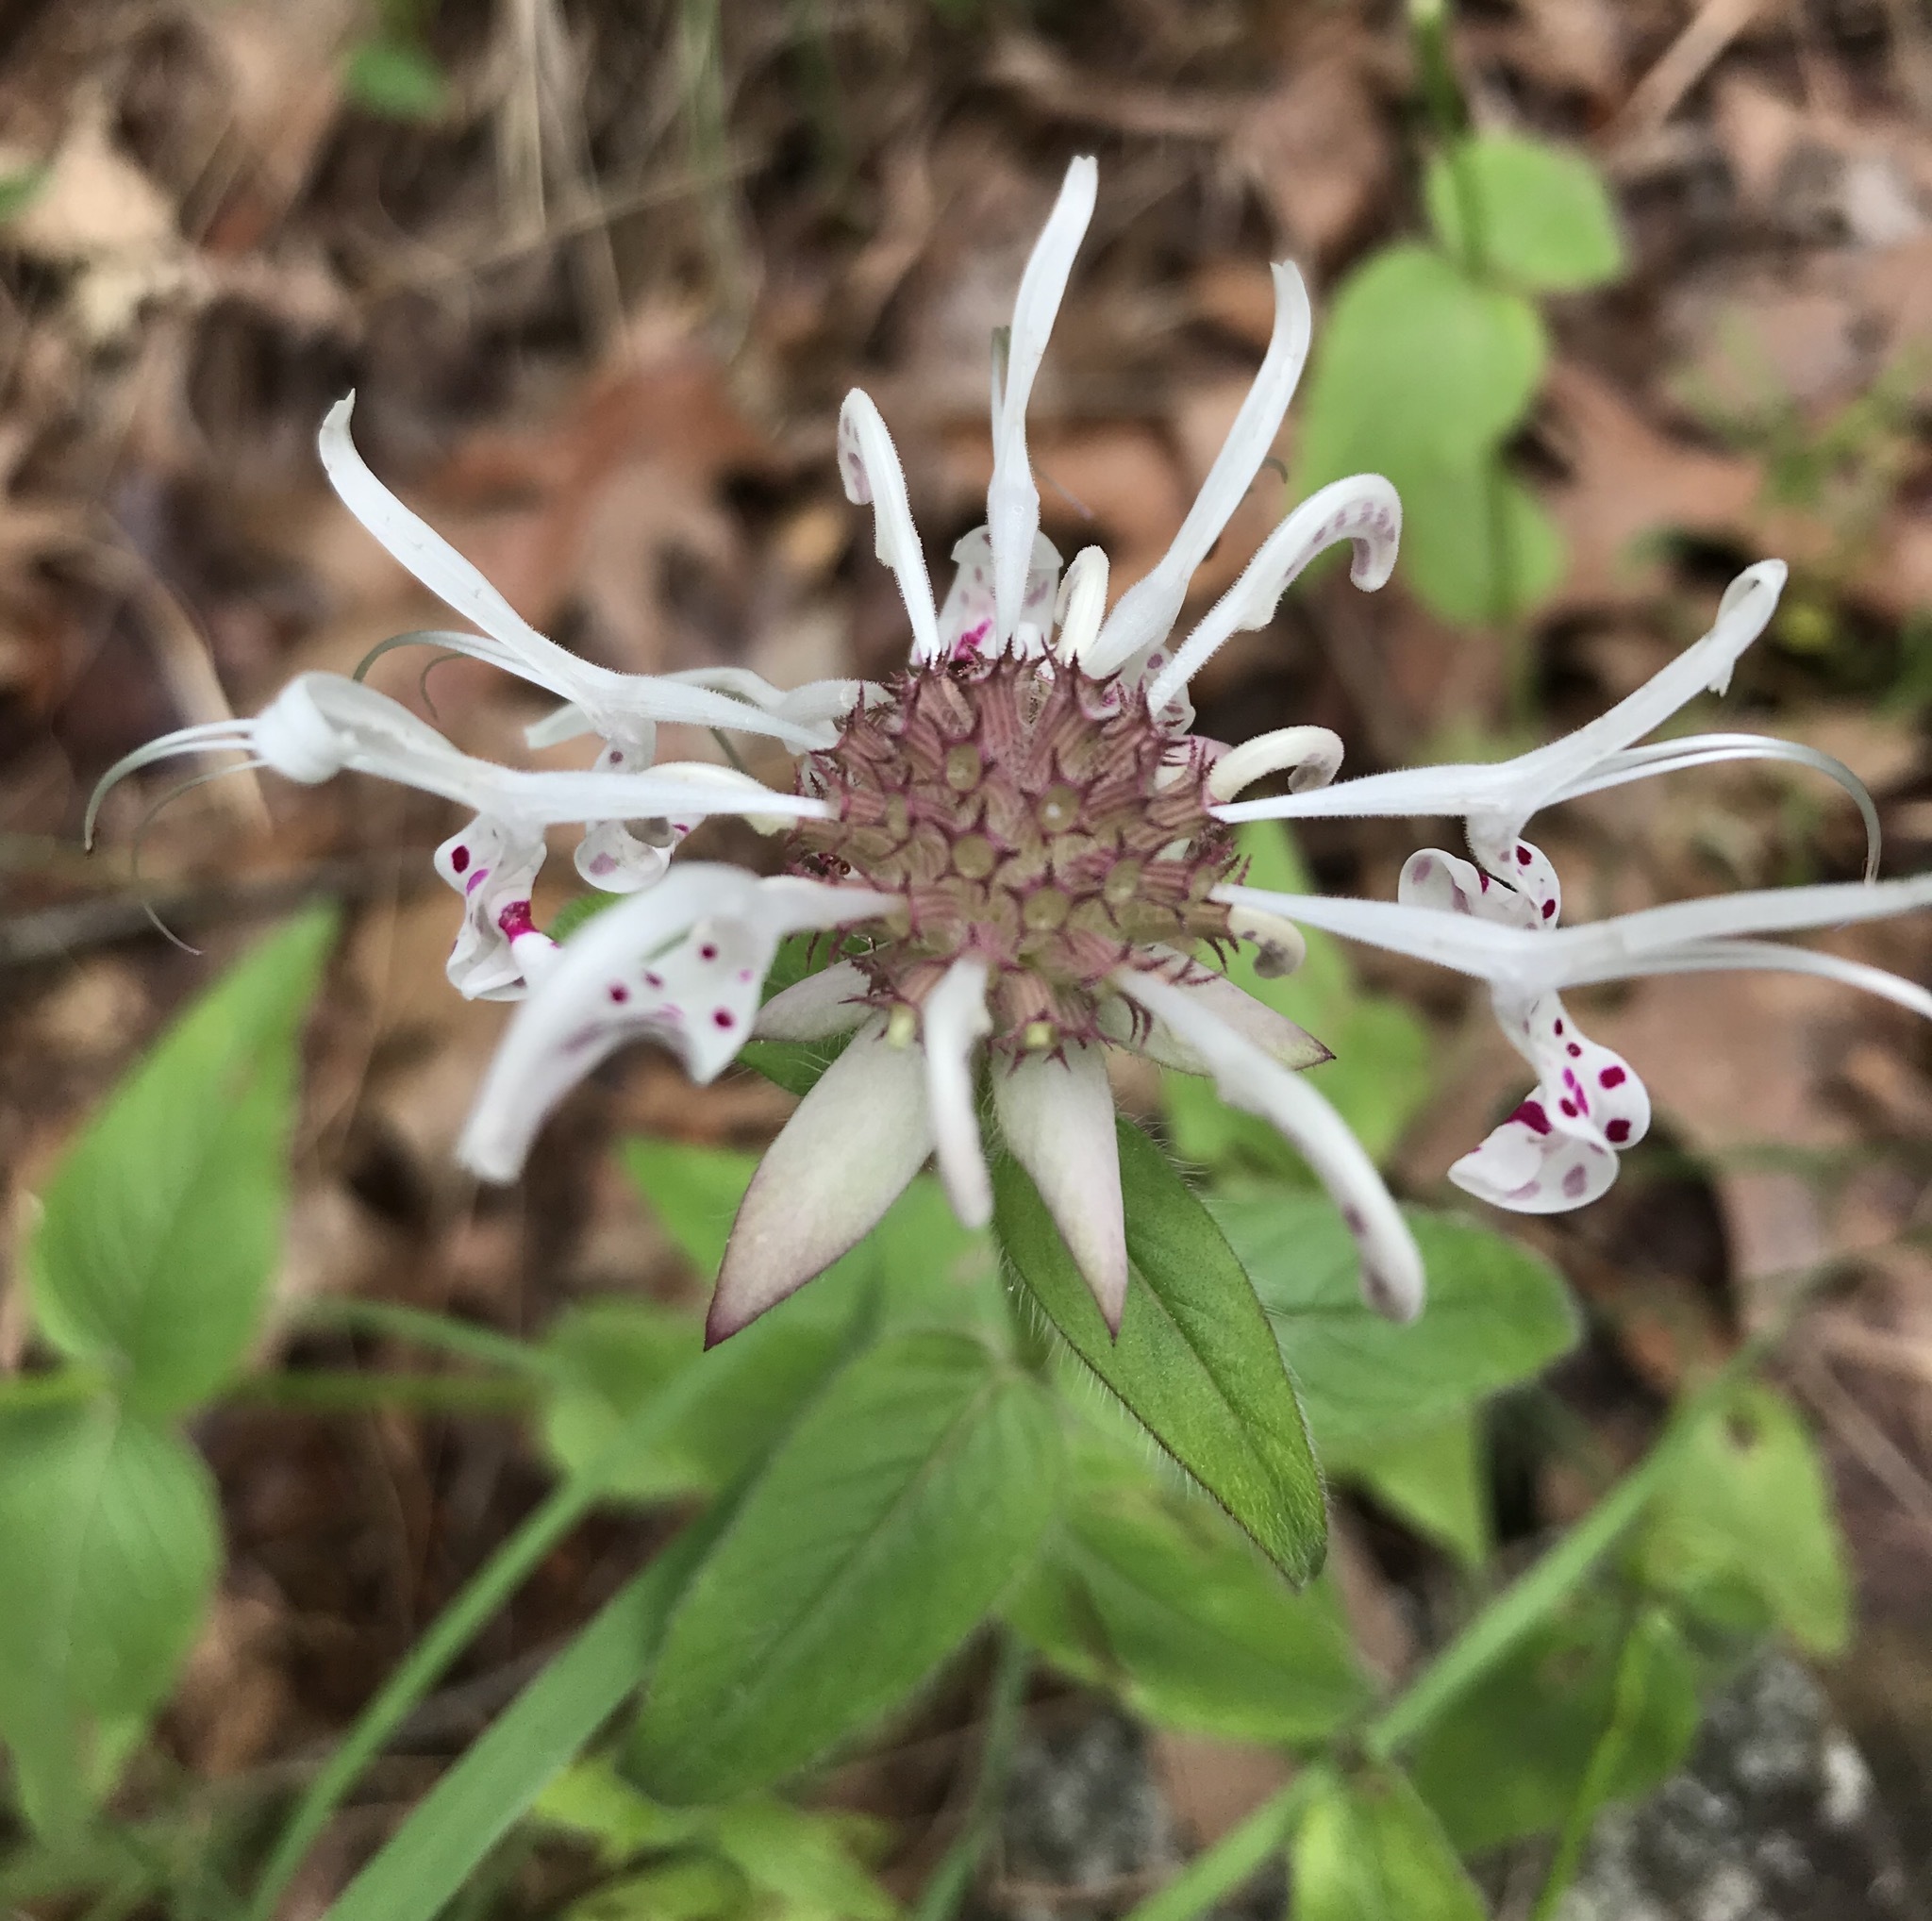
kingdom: Plantae
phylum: Tracheophyta
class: Magnoliopsida
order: Lamiales
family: Lamiaceae
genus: Monarda
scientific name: Monarda russeliana
